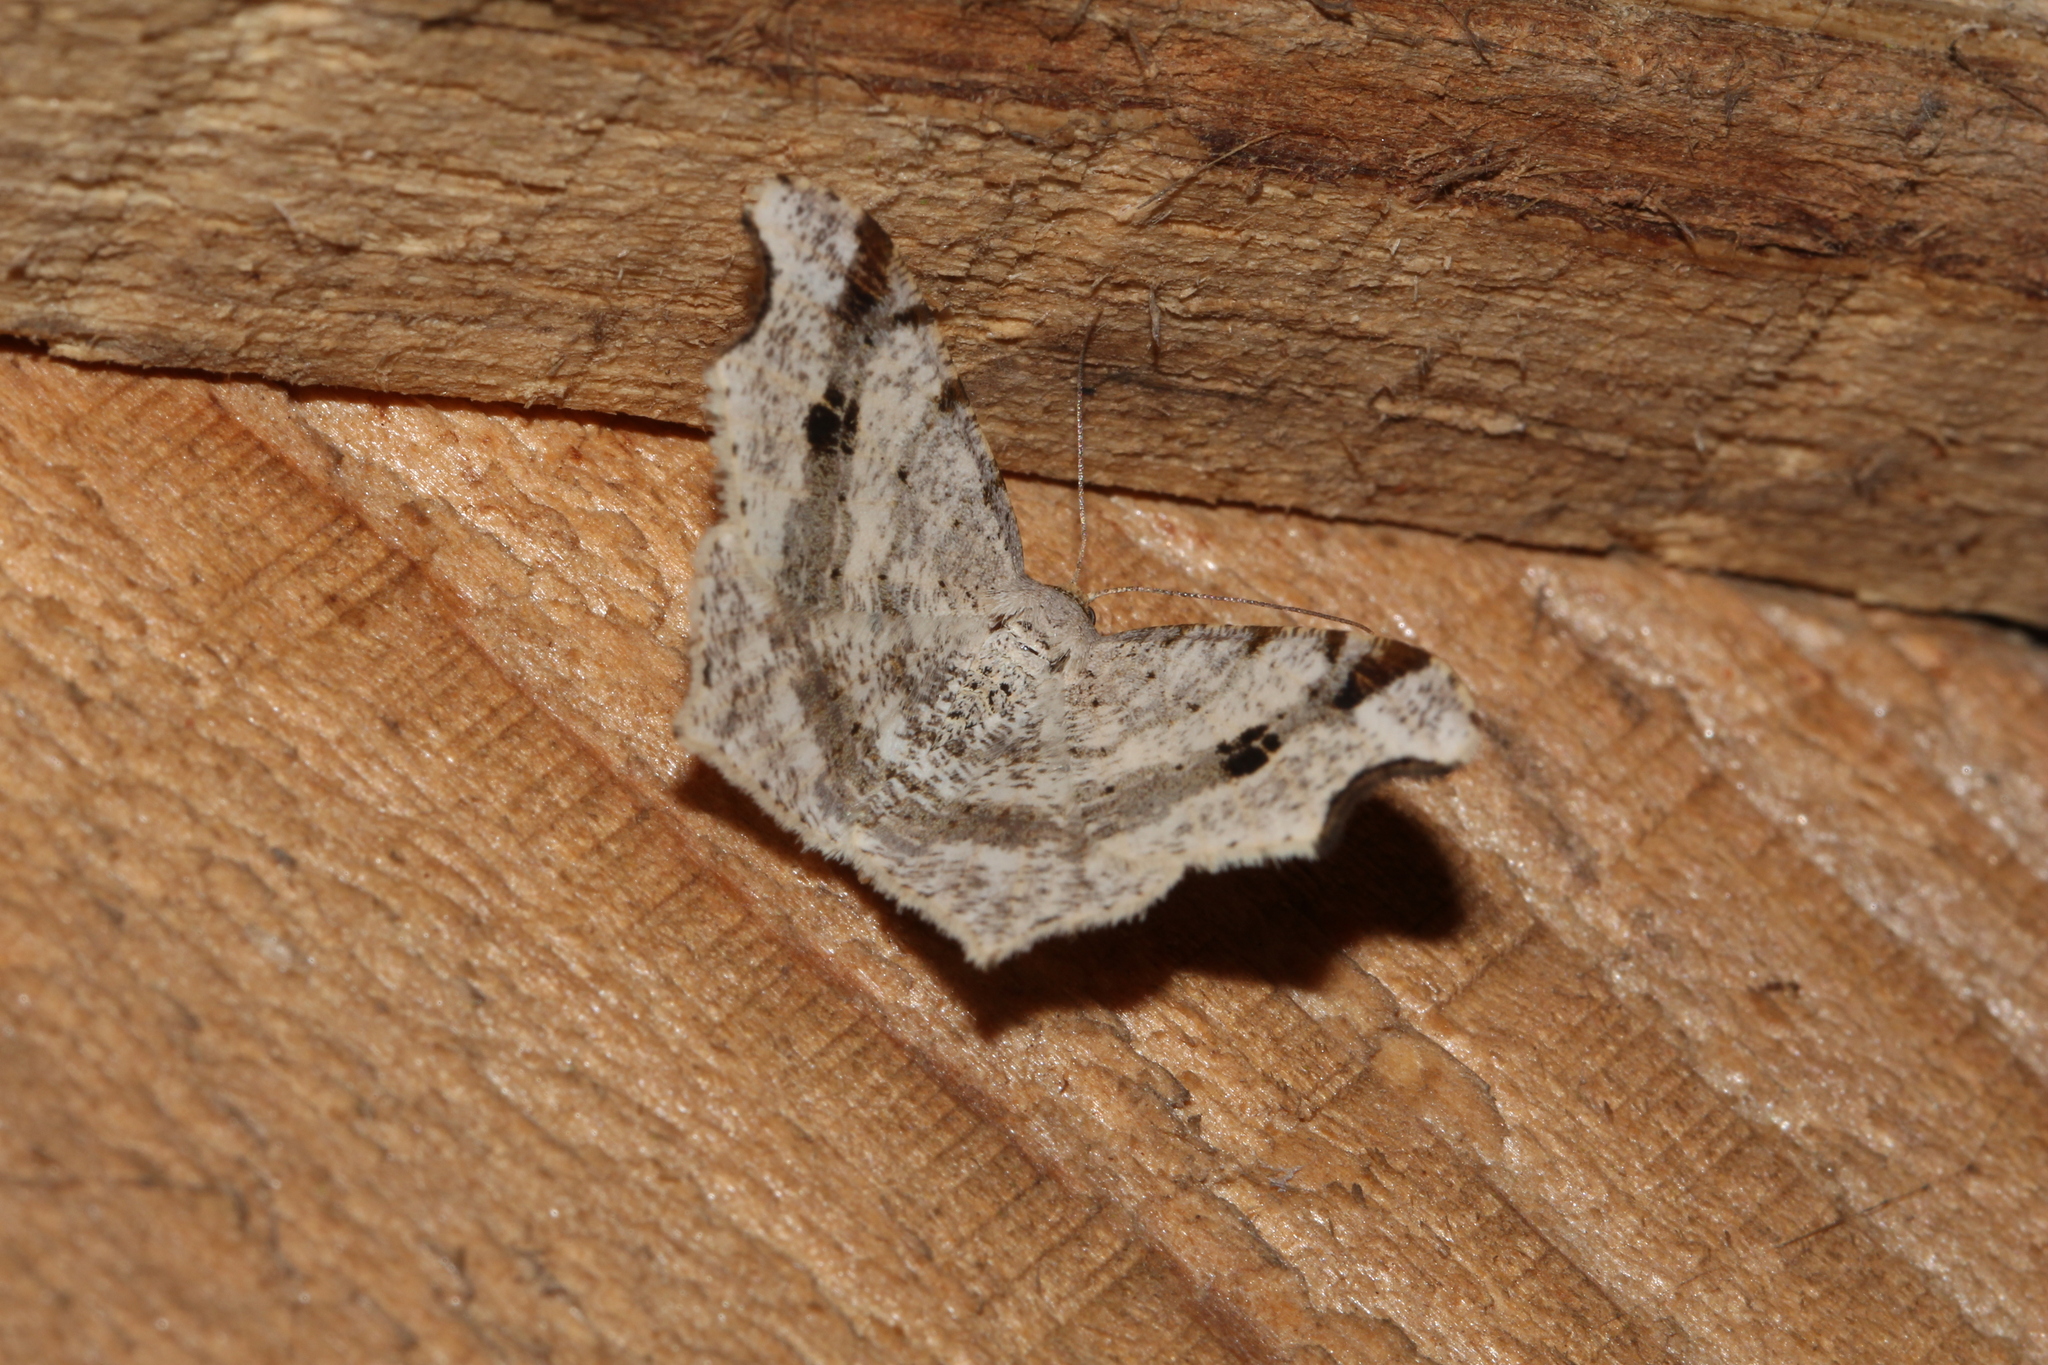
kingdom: Animalia
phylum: Arthropoda
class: Insecta
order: Lepidoptera
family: Geometridae
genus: Macaria
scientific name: Macaria alternata
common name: Sharp-angled peacock
